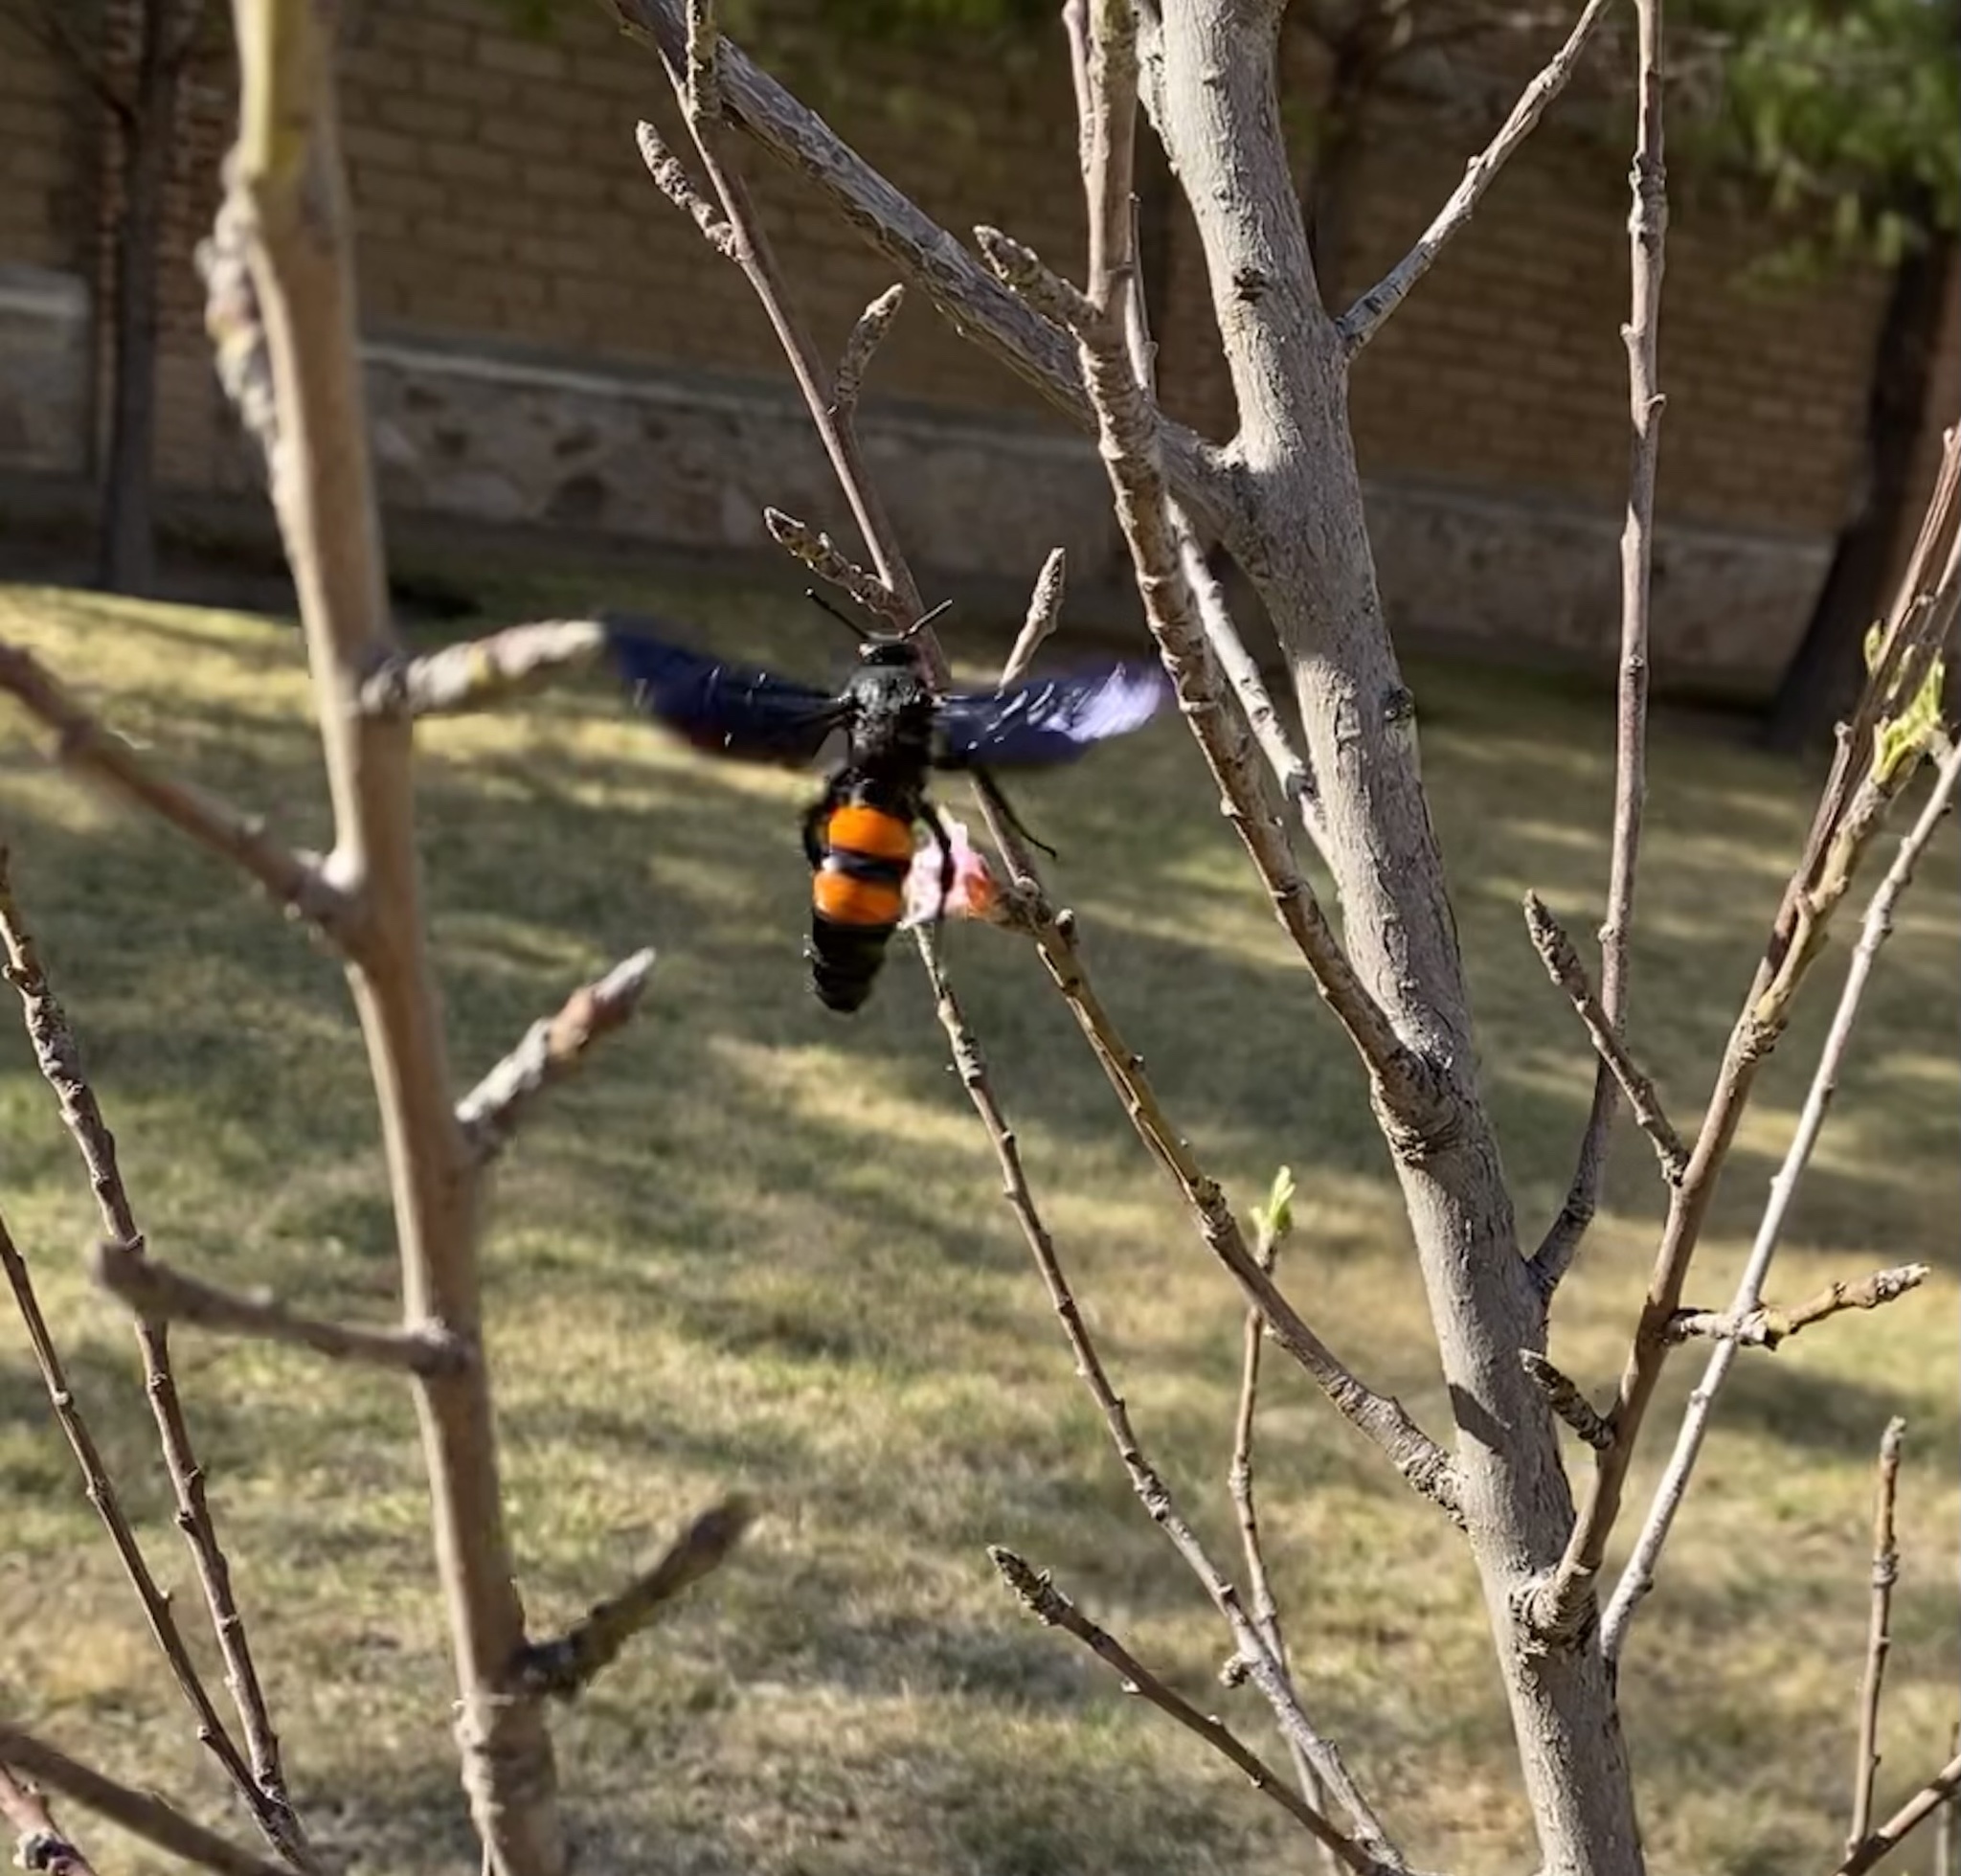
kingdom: Animalia
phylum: Arthropoda
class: Insecta
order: Hymenoptera
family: Scoliidae
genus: Pygodasis
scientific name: Pygodasis ephippium
